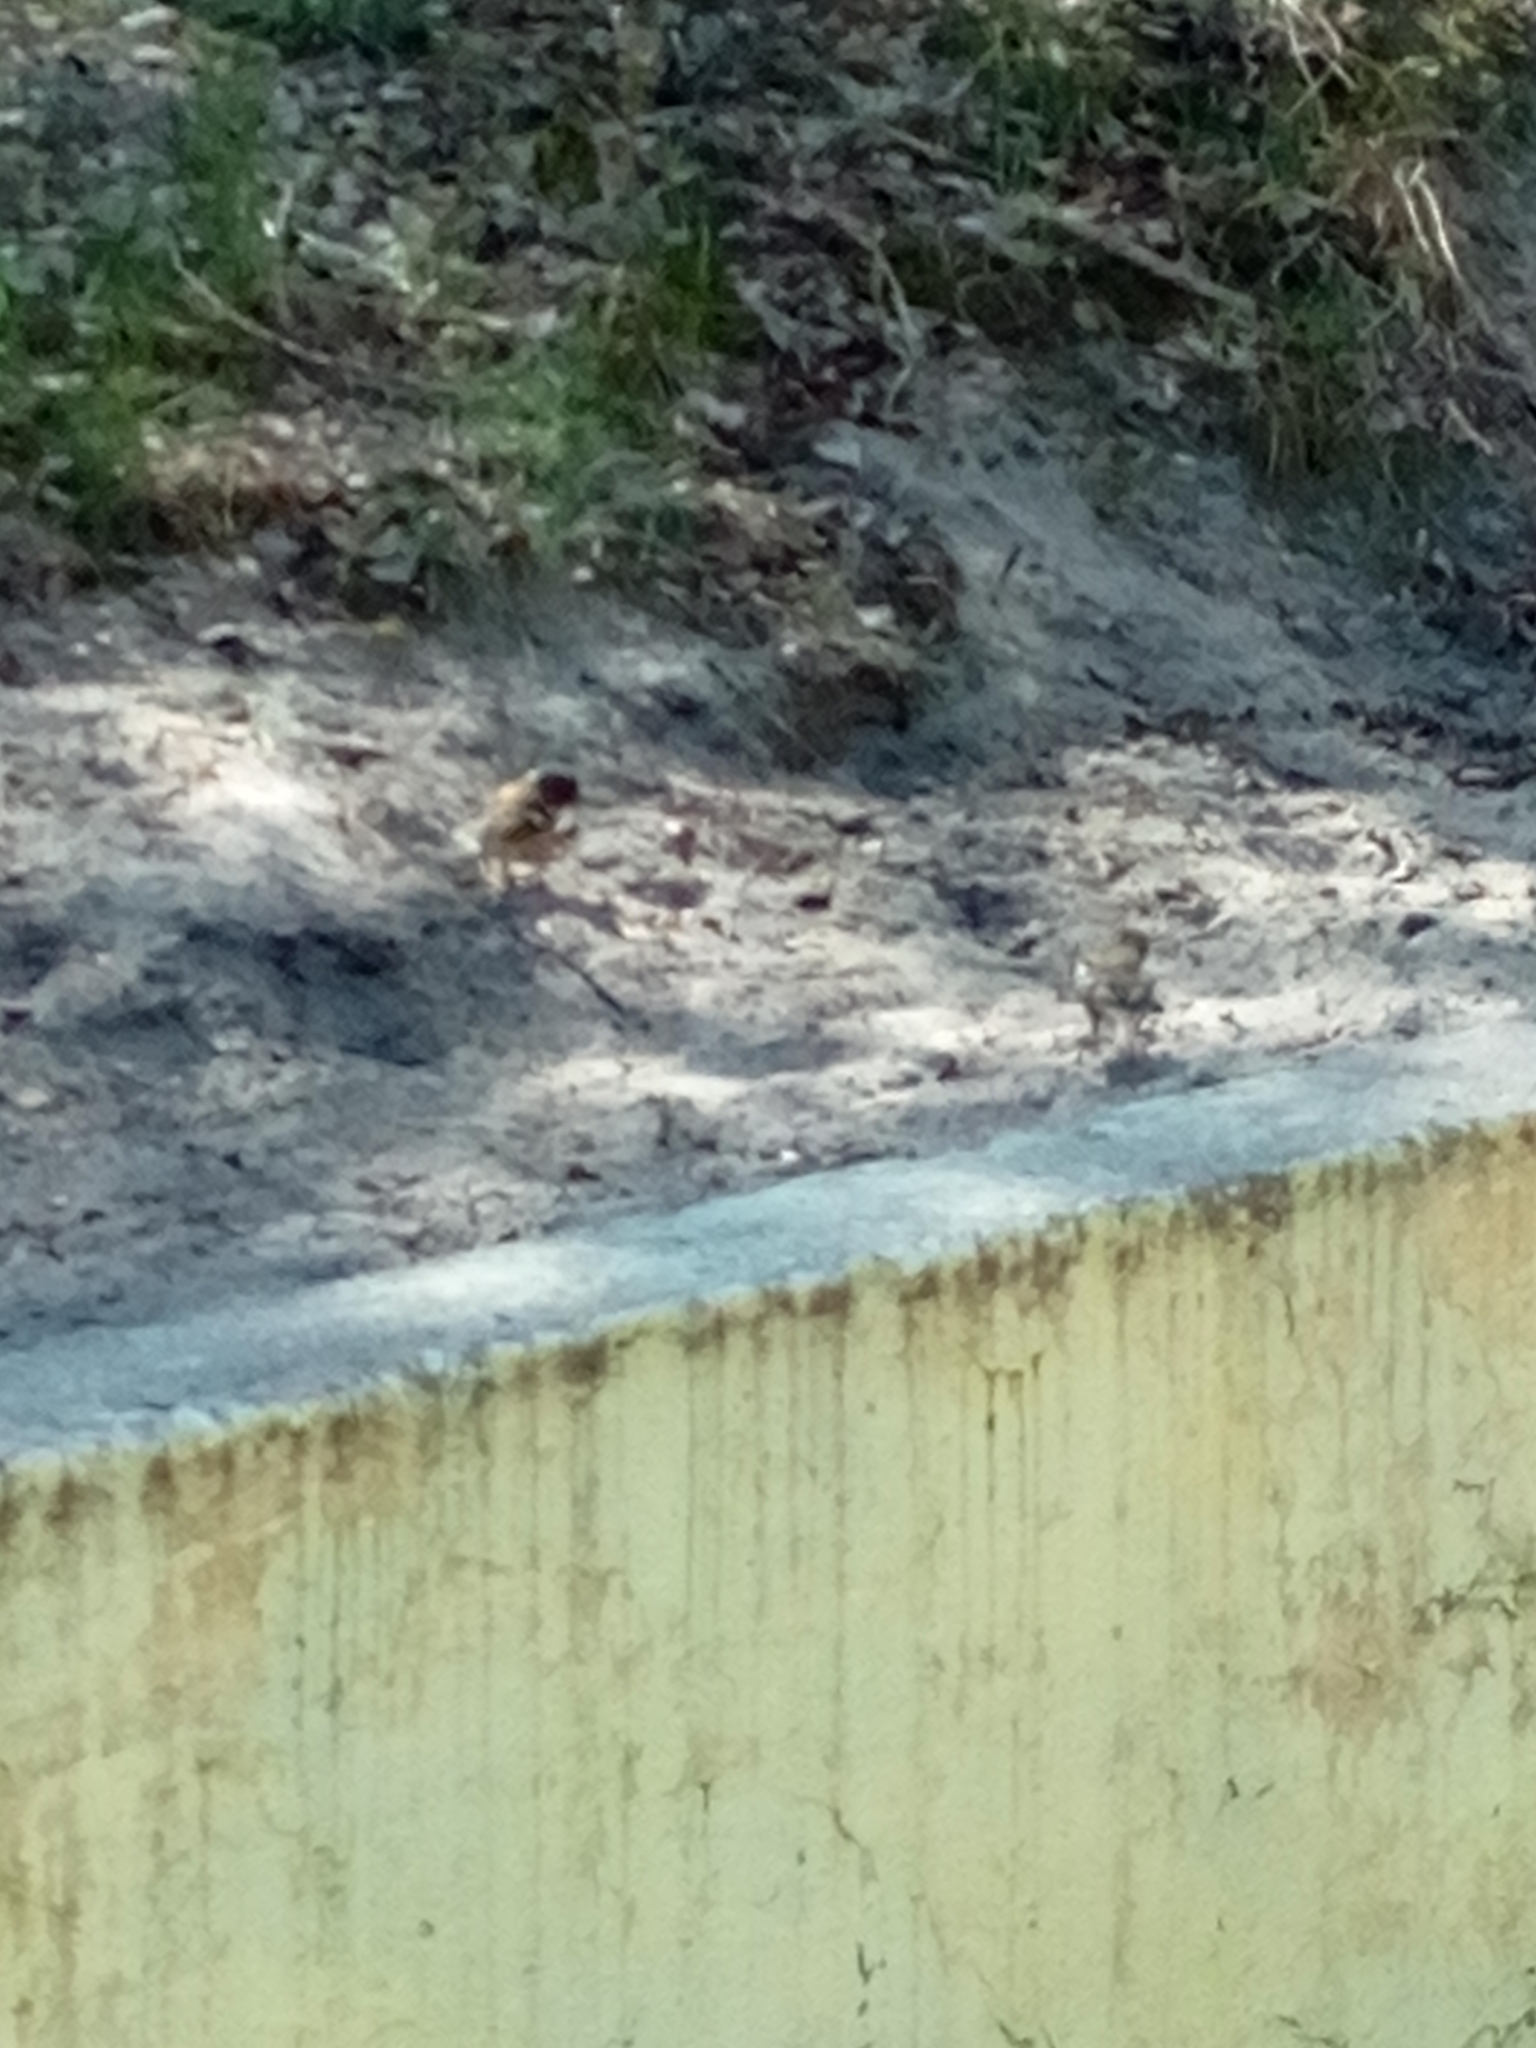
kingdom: Animalia
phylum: Chordata
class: Aves
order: Passeriformes
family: Fringillidae
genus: Fringilla
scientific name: Fringilla coelebs
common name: Common chaffinch
